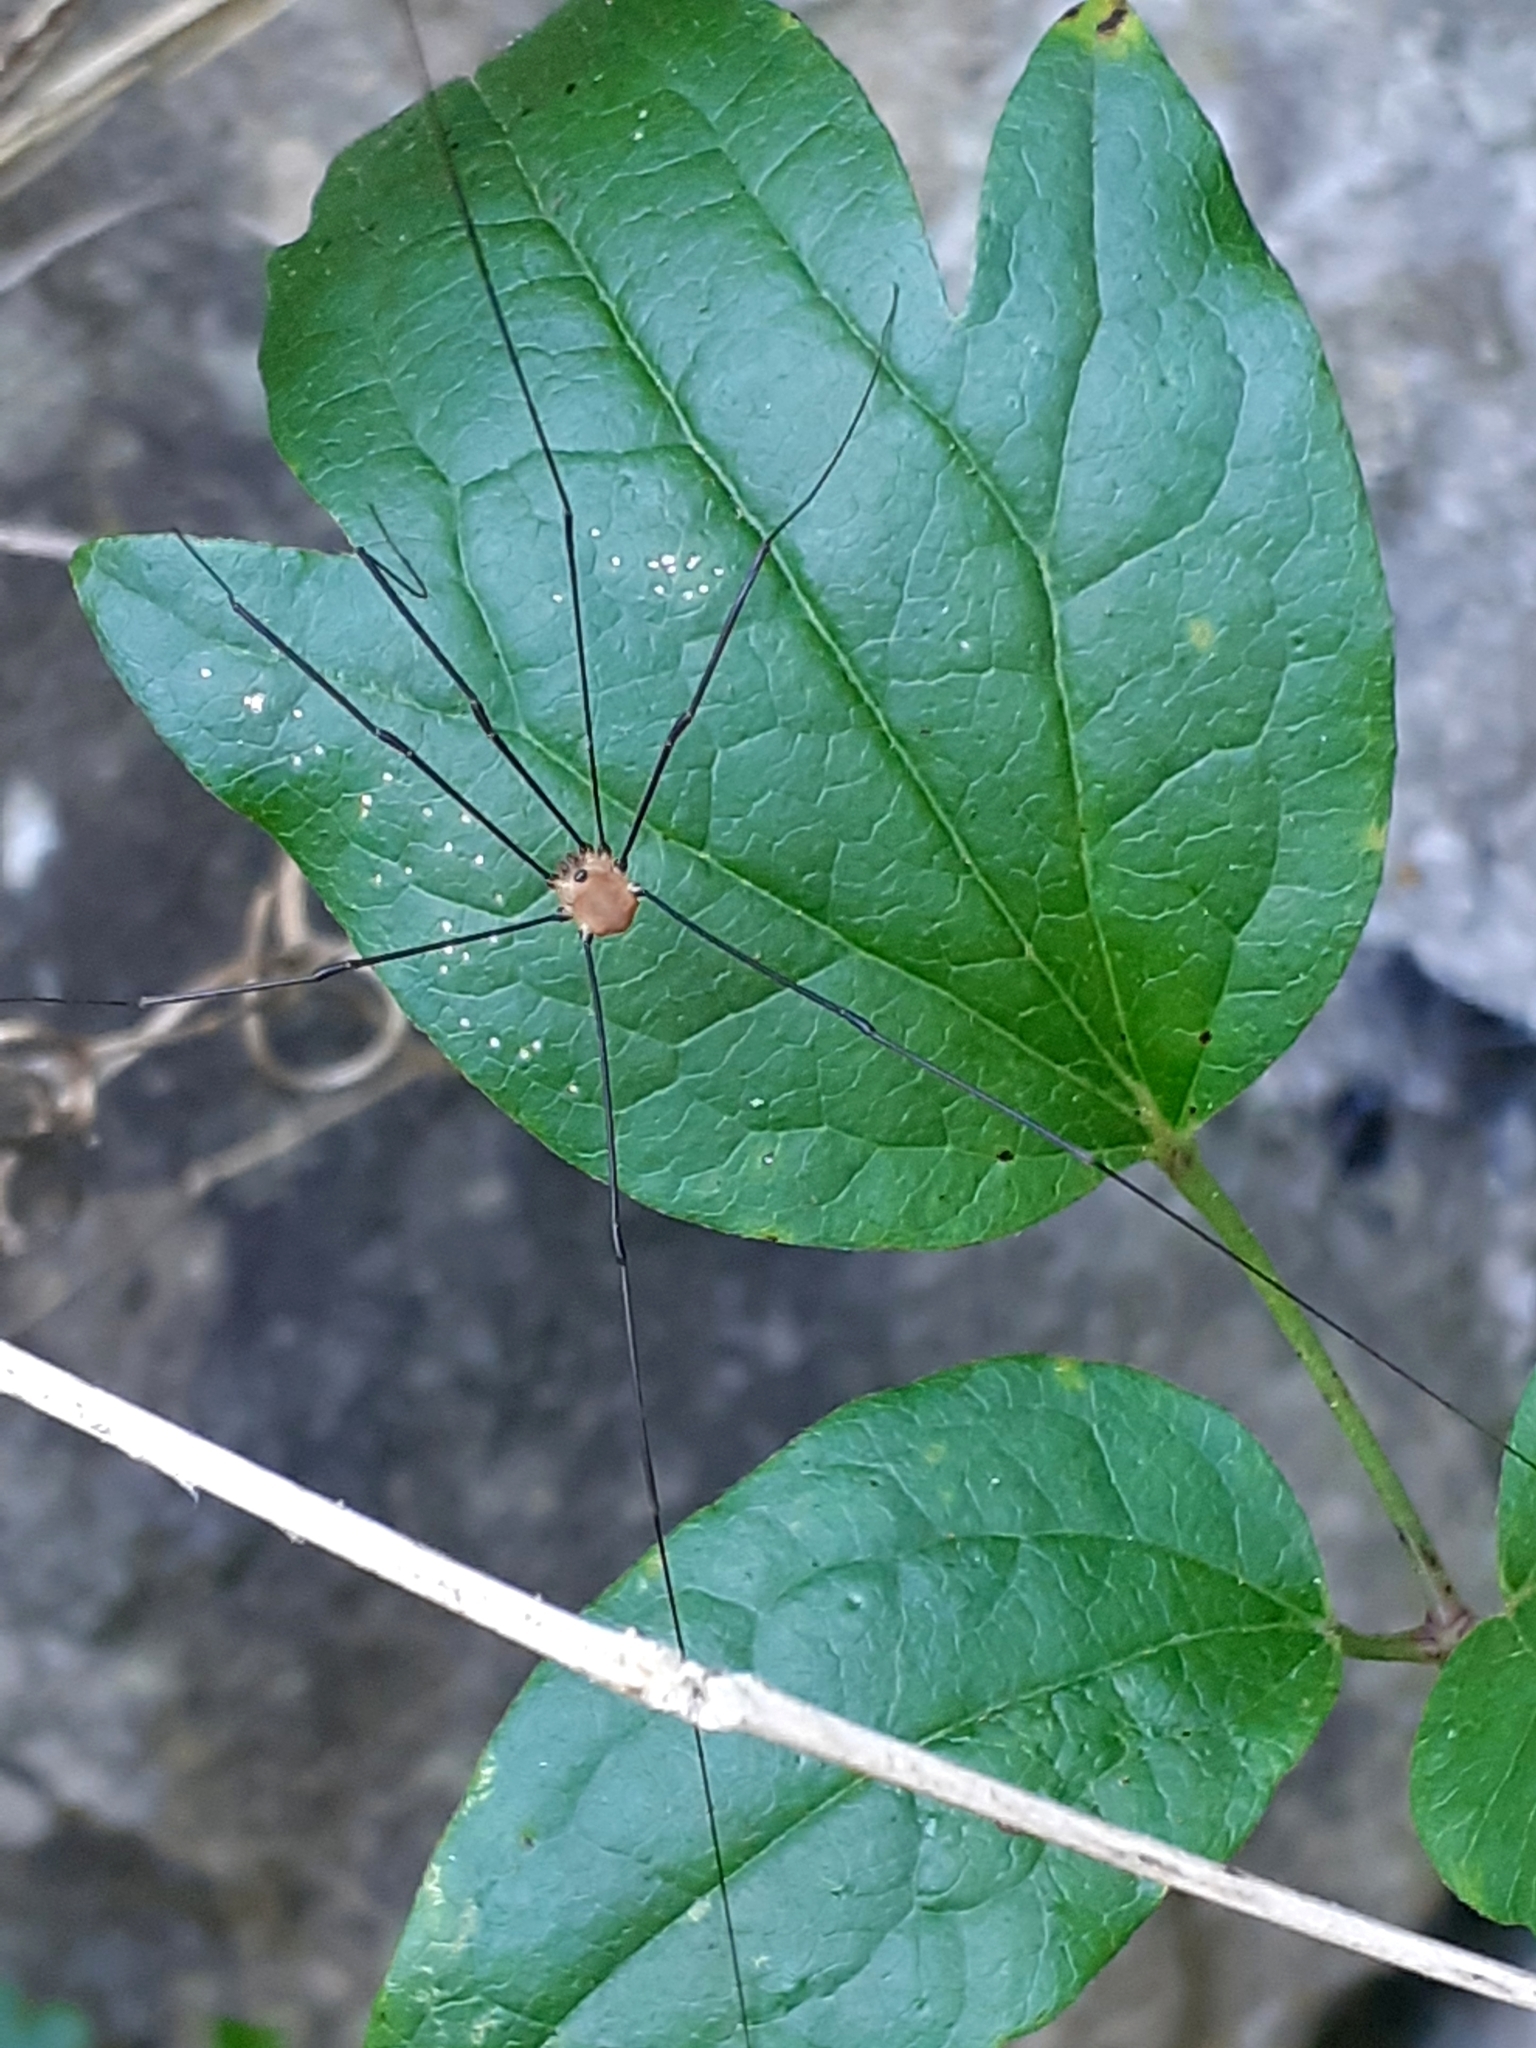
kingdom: Animalia
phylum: Arthropoda
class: Arachnida
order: Opiliones
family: Sclerosomatidae
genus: Leiobunum
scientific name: Leiobunum rotundum
